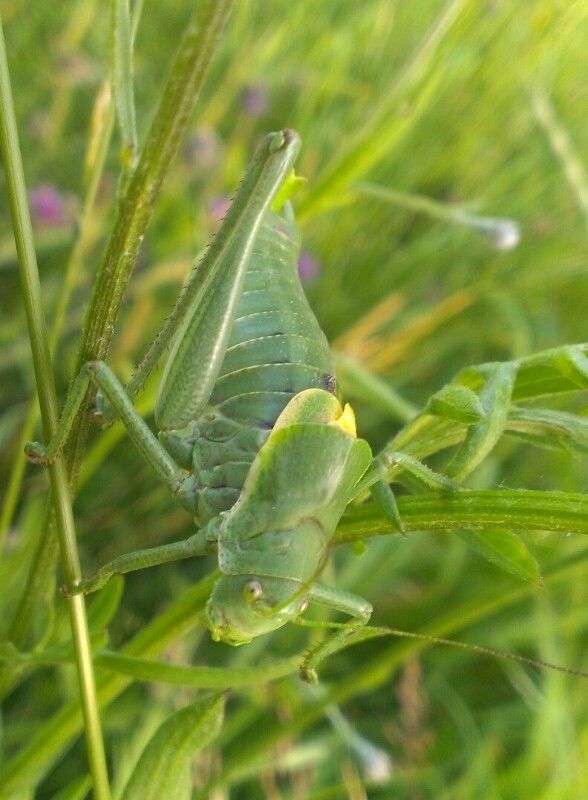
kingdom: Animalia
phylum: Arthropoda
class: Insecta
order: Orthoptera
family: Tettigoniidae
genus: Polysarcus
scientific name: Polysarcus denticauda
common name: Large saw-tailed bush-cricket
